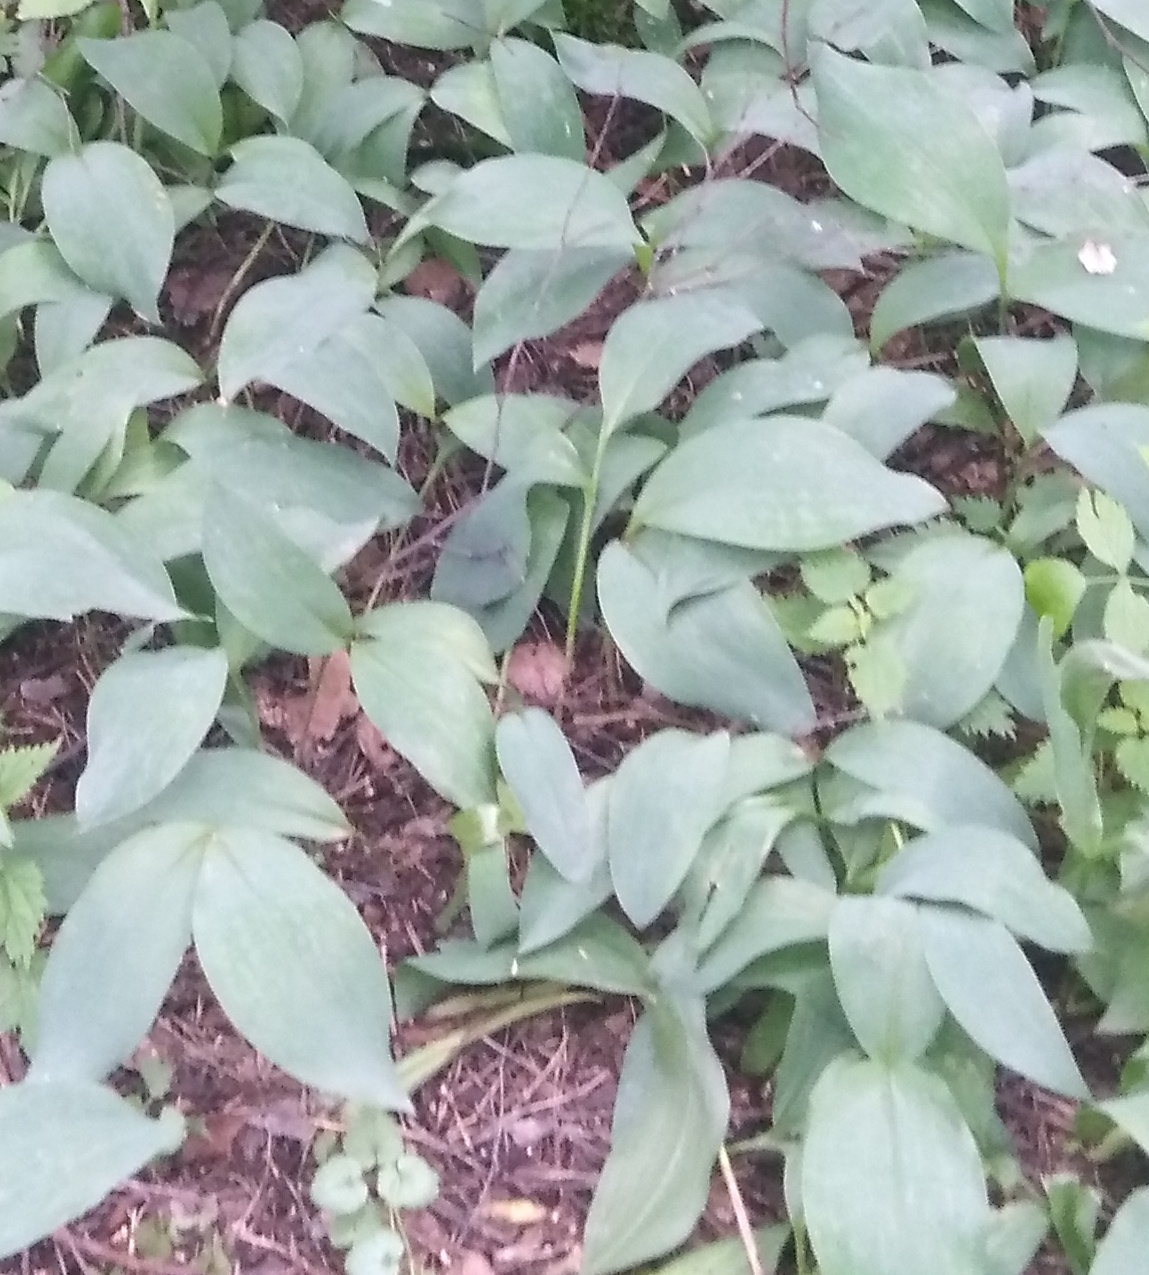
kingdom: Plantae
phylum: Tracheophyta
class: Liliopsida
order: Asparagales
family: Asparagaceae
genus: Convallaria
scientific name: Convallaria majalis
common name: Lily-of-the-valley
